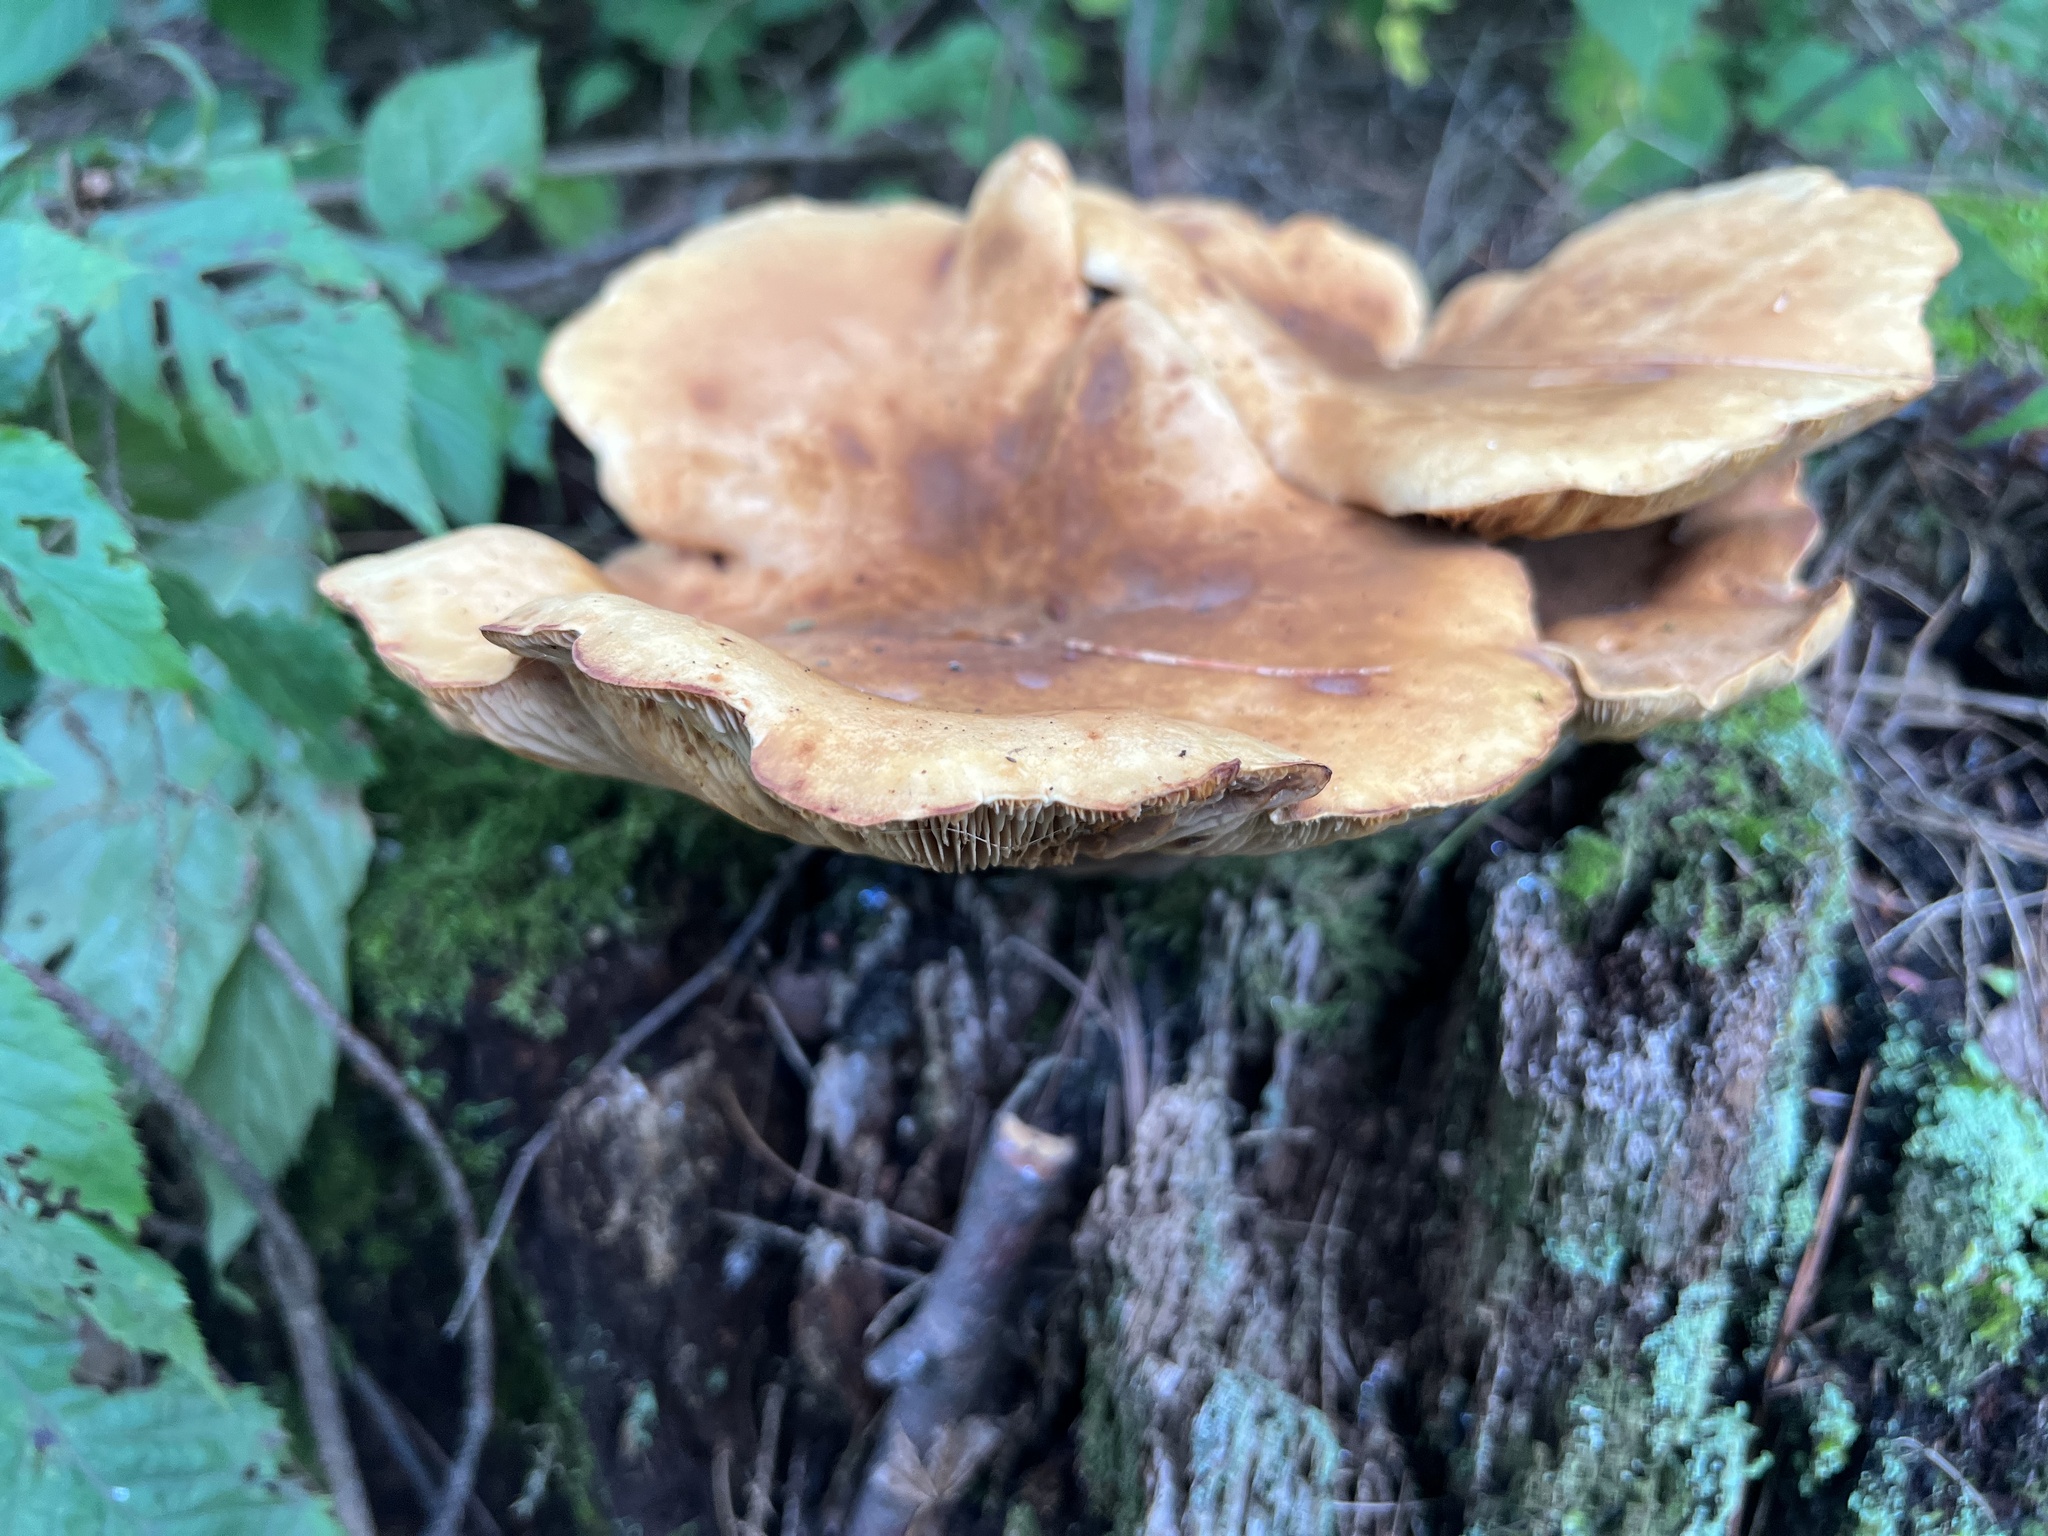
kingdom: Fungi
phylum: Basidiomycota
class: Agaricomycetes
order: Boletales
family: Tapinellaceae
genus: Tapinella
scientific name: Tapinella atrotomentosa
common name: Velvet rollrim
